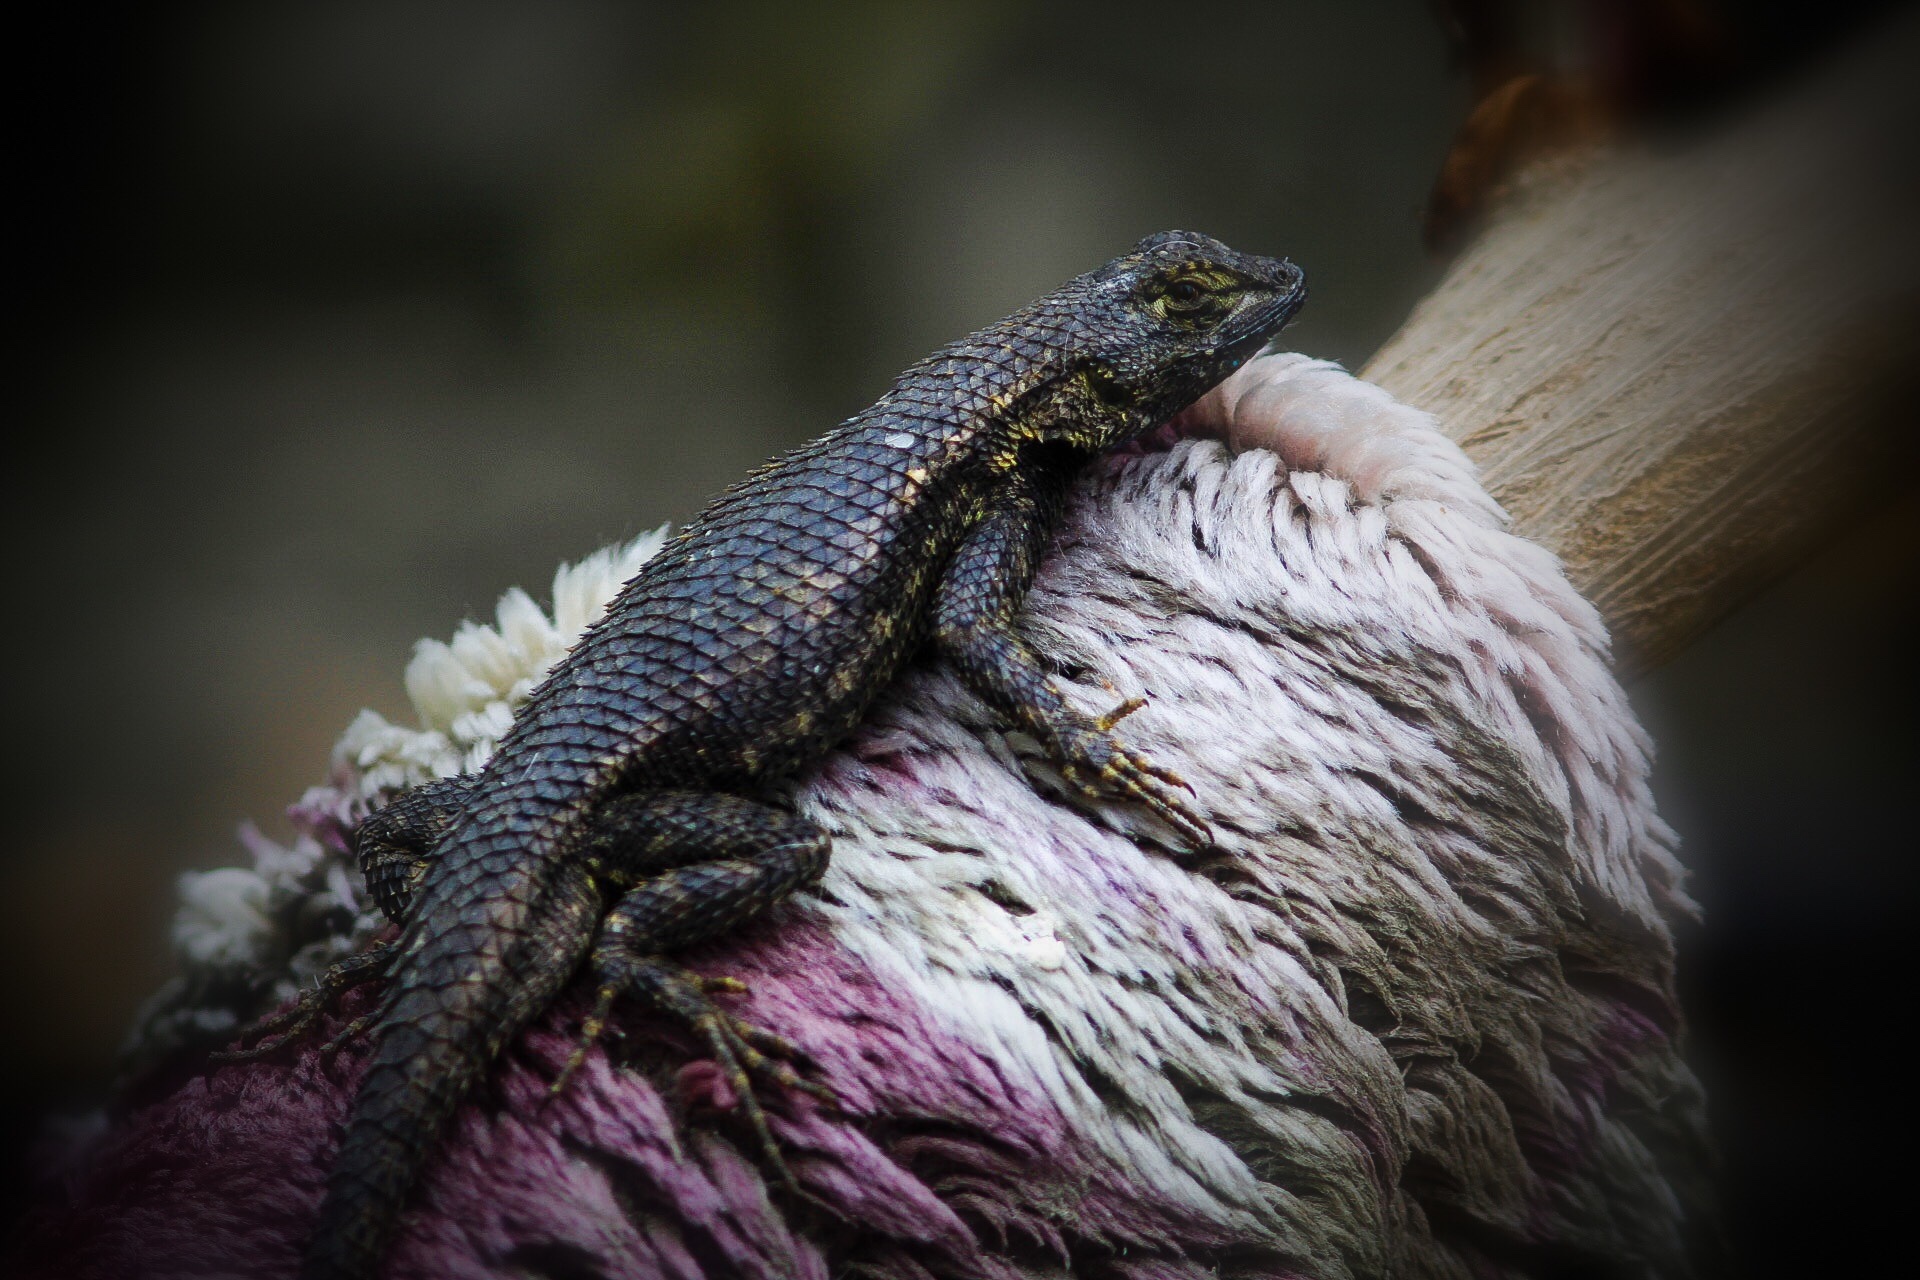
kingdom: Animalia
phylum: Chordata
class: Squamata
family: Phrynosomatidae
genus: Sceloporus
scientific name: Sceloporus occidentalis
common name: Western fence lizard
